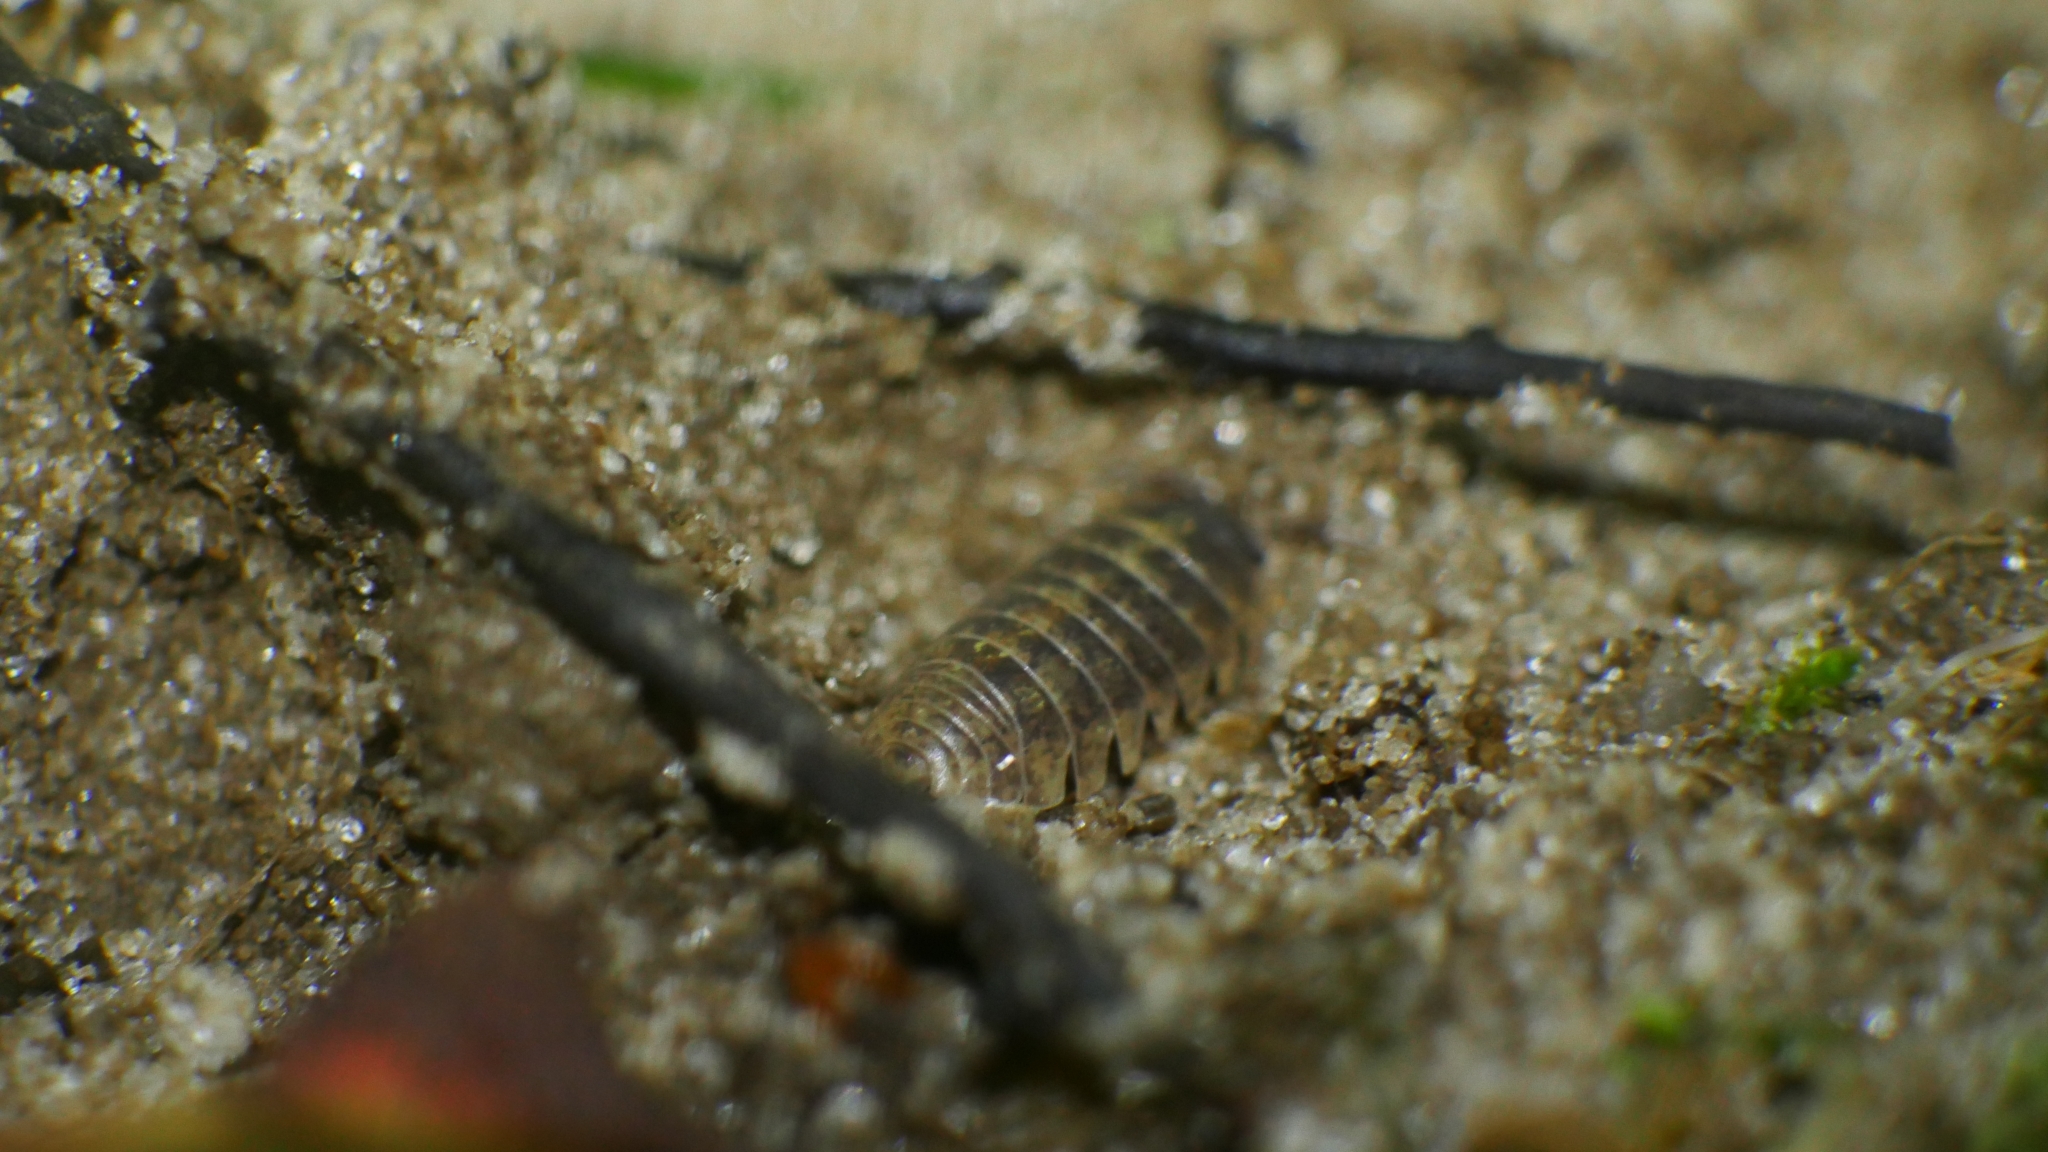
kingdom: Animalia
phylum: Arthropoda
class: Malacostraca
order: Isopoda
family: Armadillidiidae
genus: Armadillidium
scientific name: Armadillidium vulgare
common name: Common pill woodlouse
